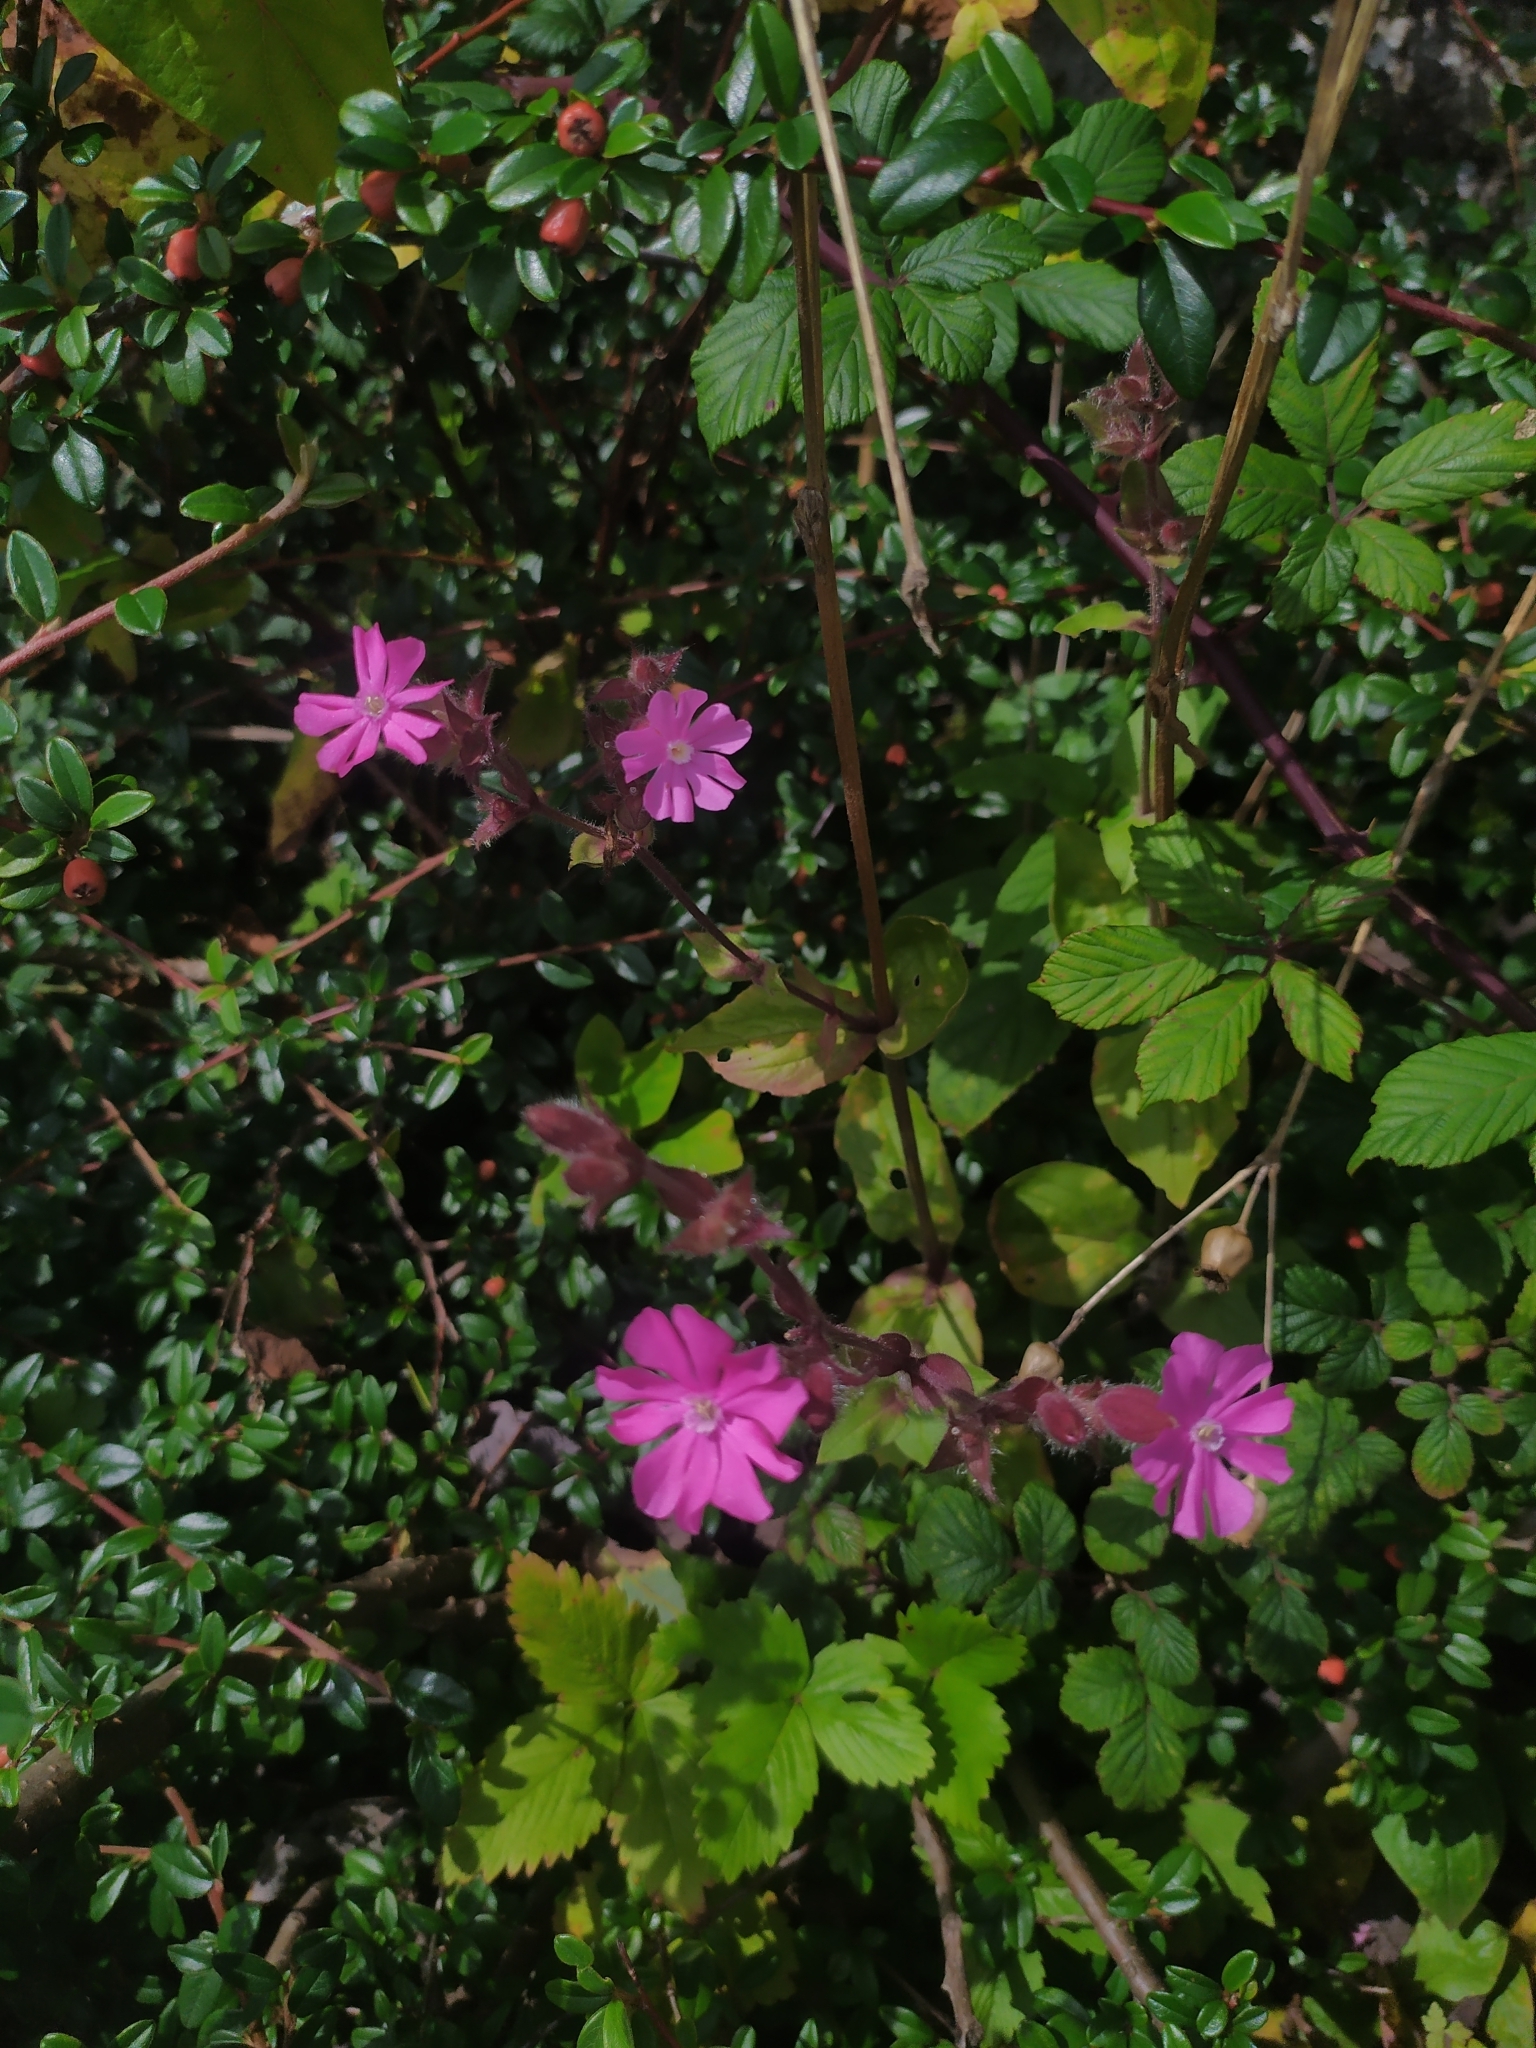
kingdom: Plantae
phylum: Tracheophyta
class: Magnoliopsida
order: Caryophyllales
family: Caryophyllaceae
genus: Silene
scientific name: Silene dioica
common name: Red campion
